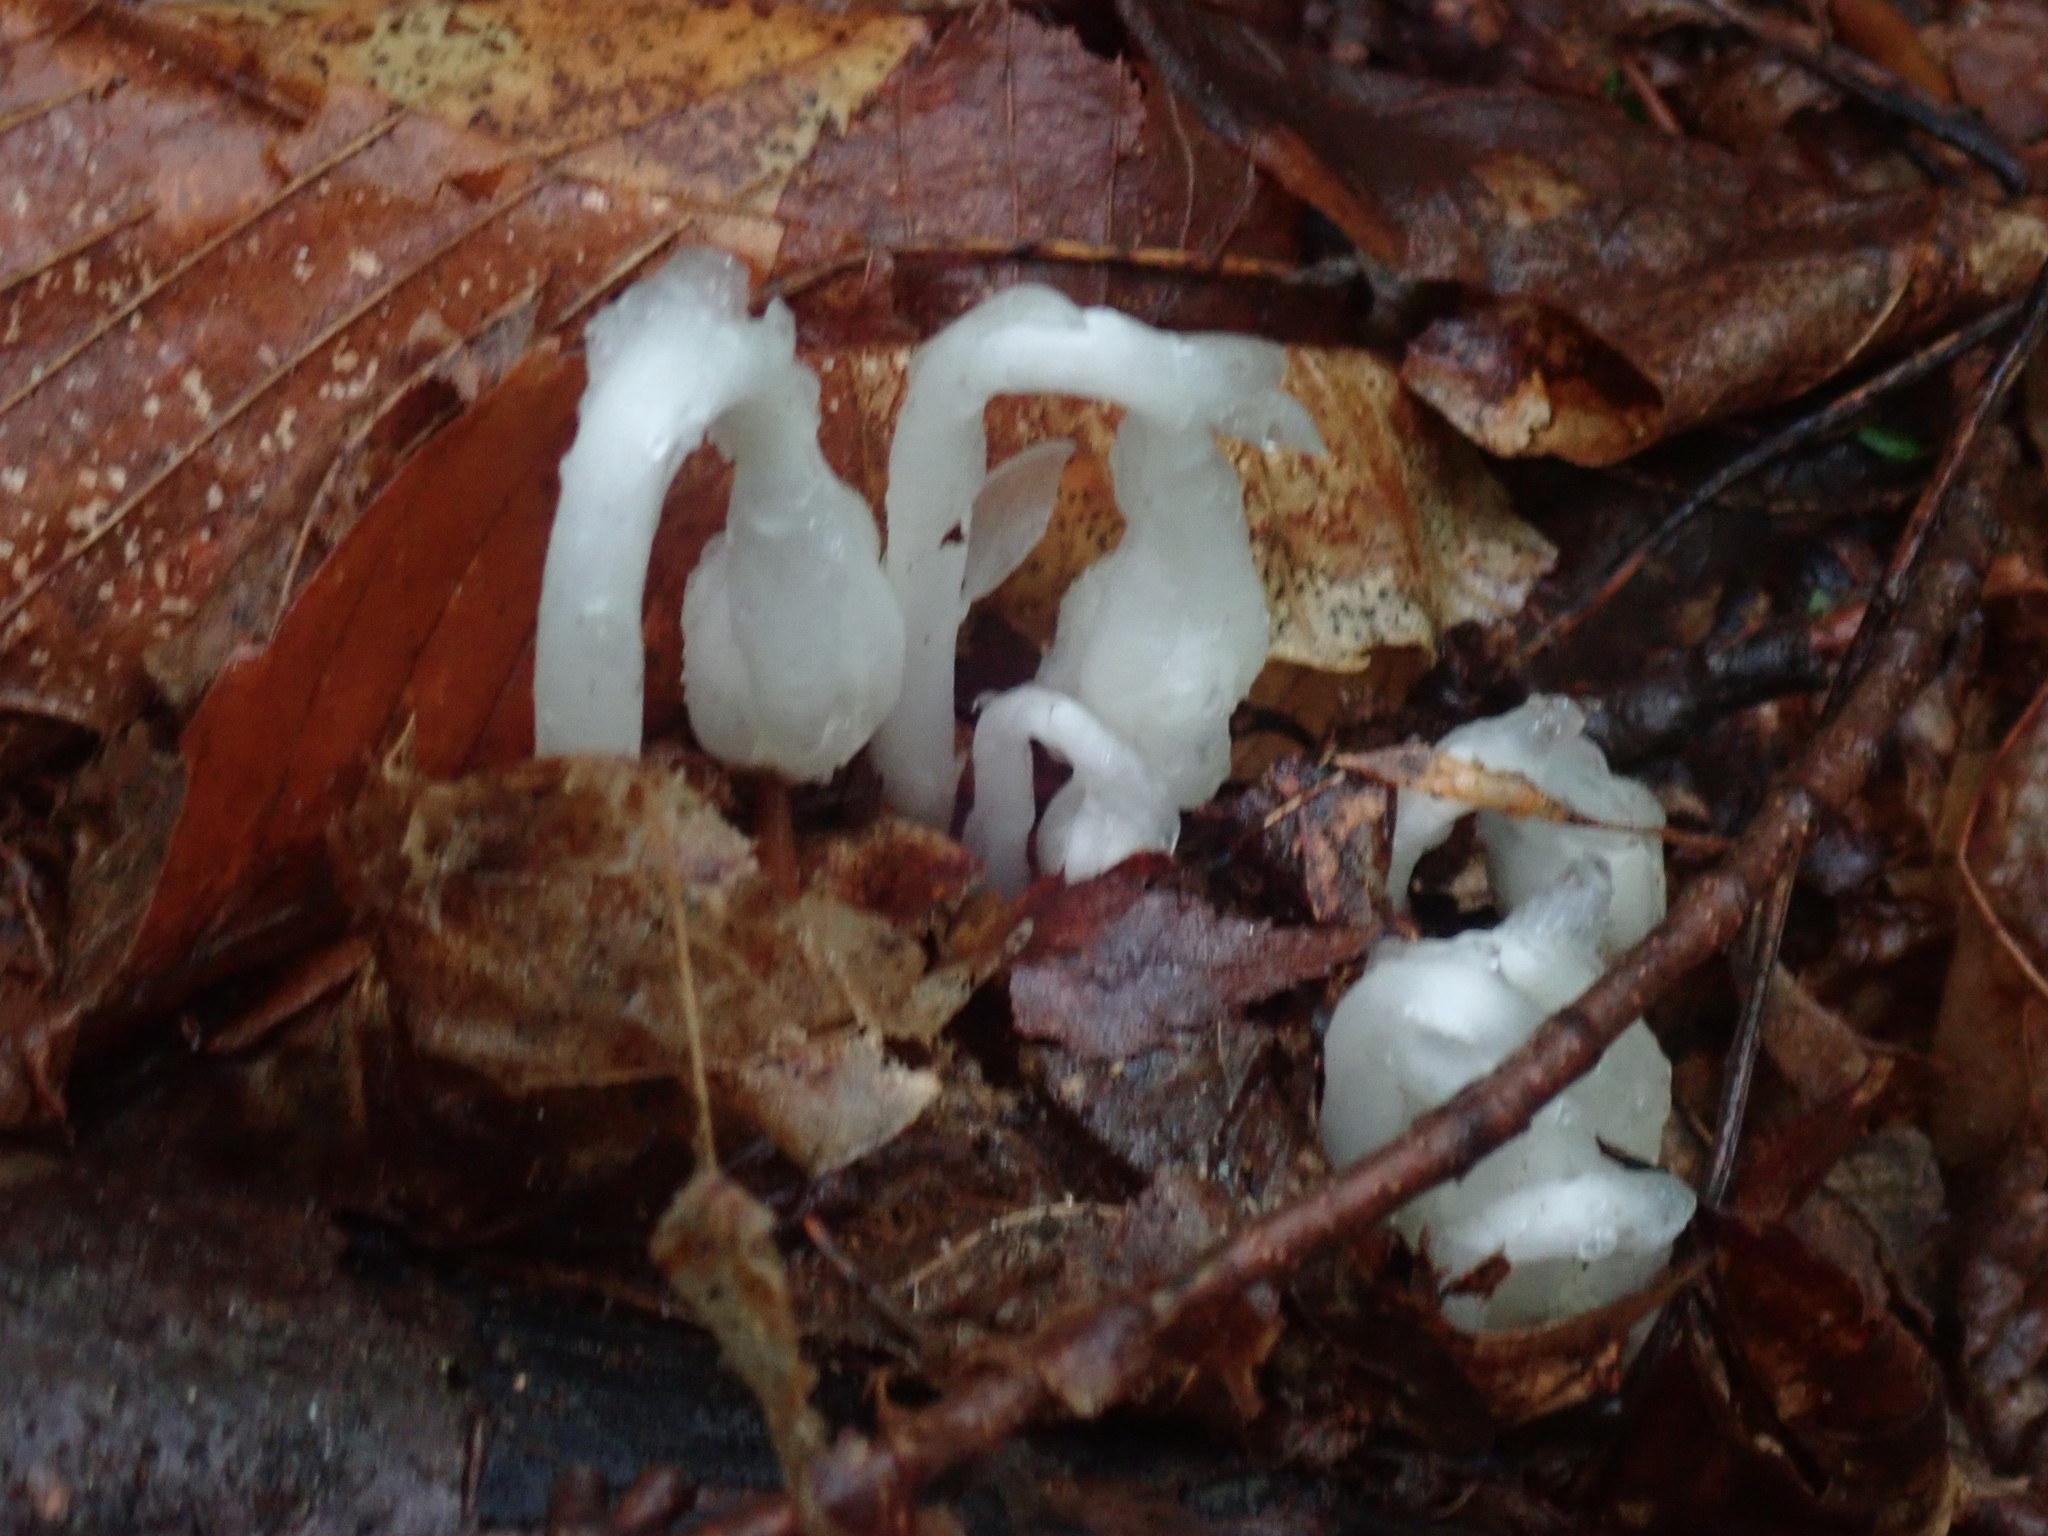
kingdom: Plantae
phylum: Tracheophyta
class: Magnoliopsida
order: Ericales
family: Ericaceae
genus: Monotropa
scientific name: Monotropa uniflora
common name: Convulsion root
